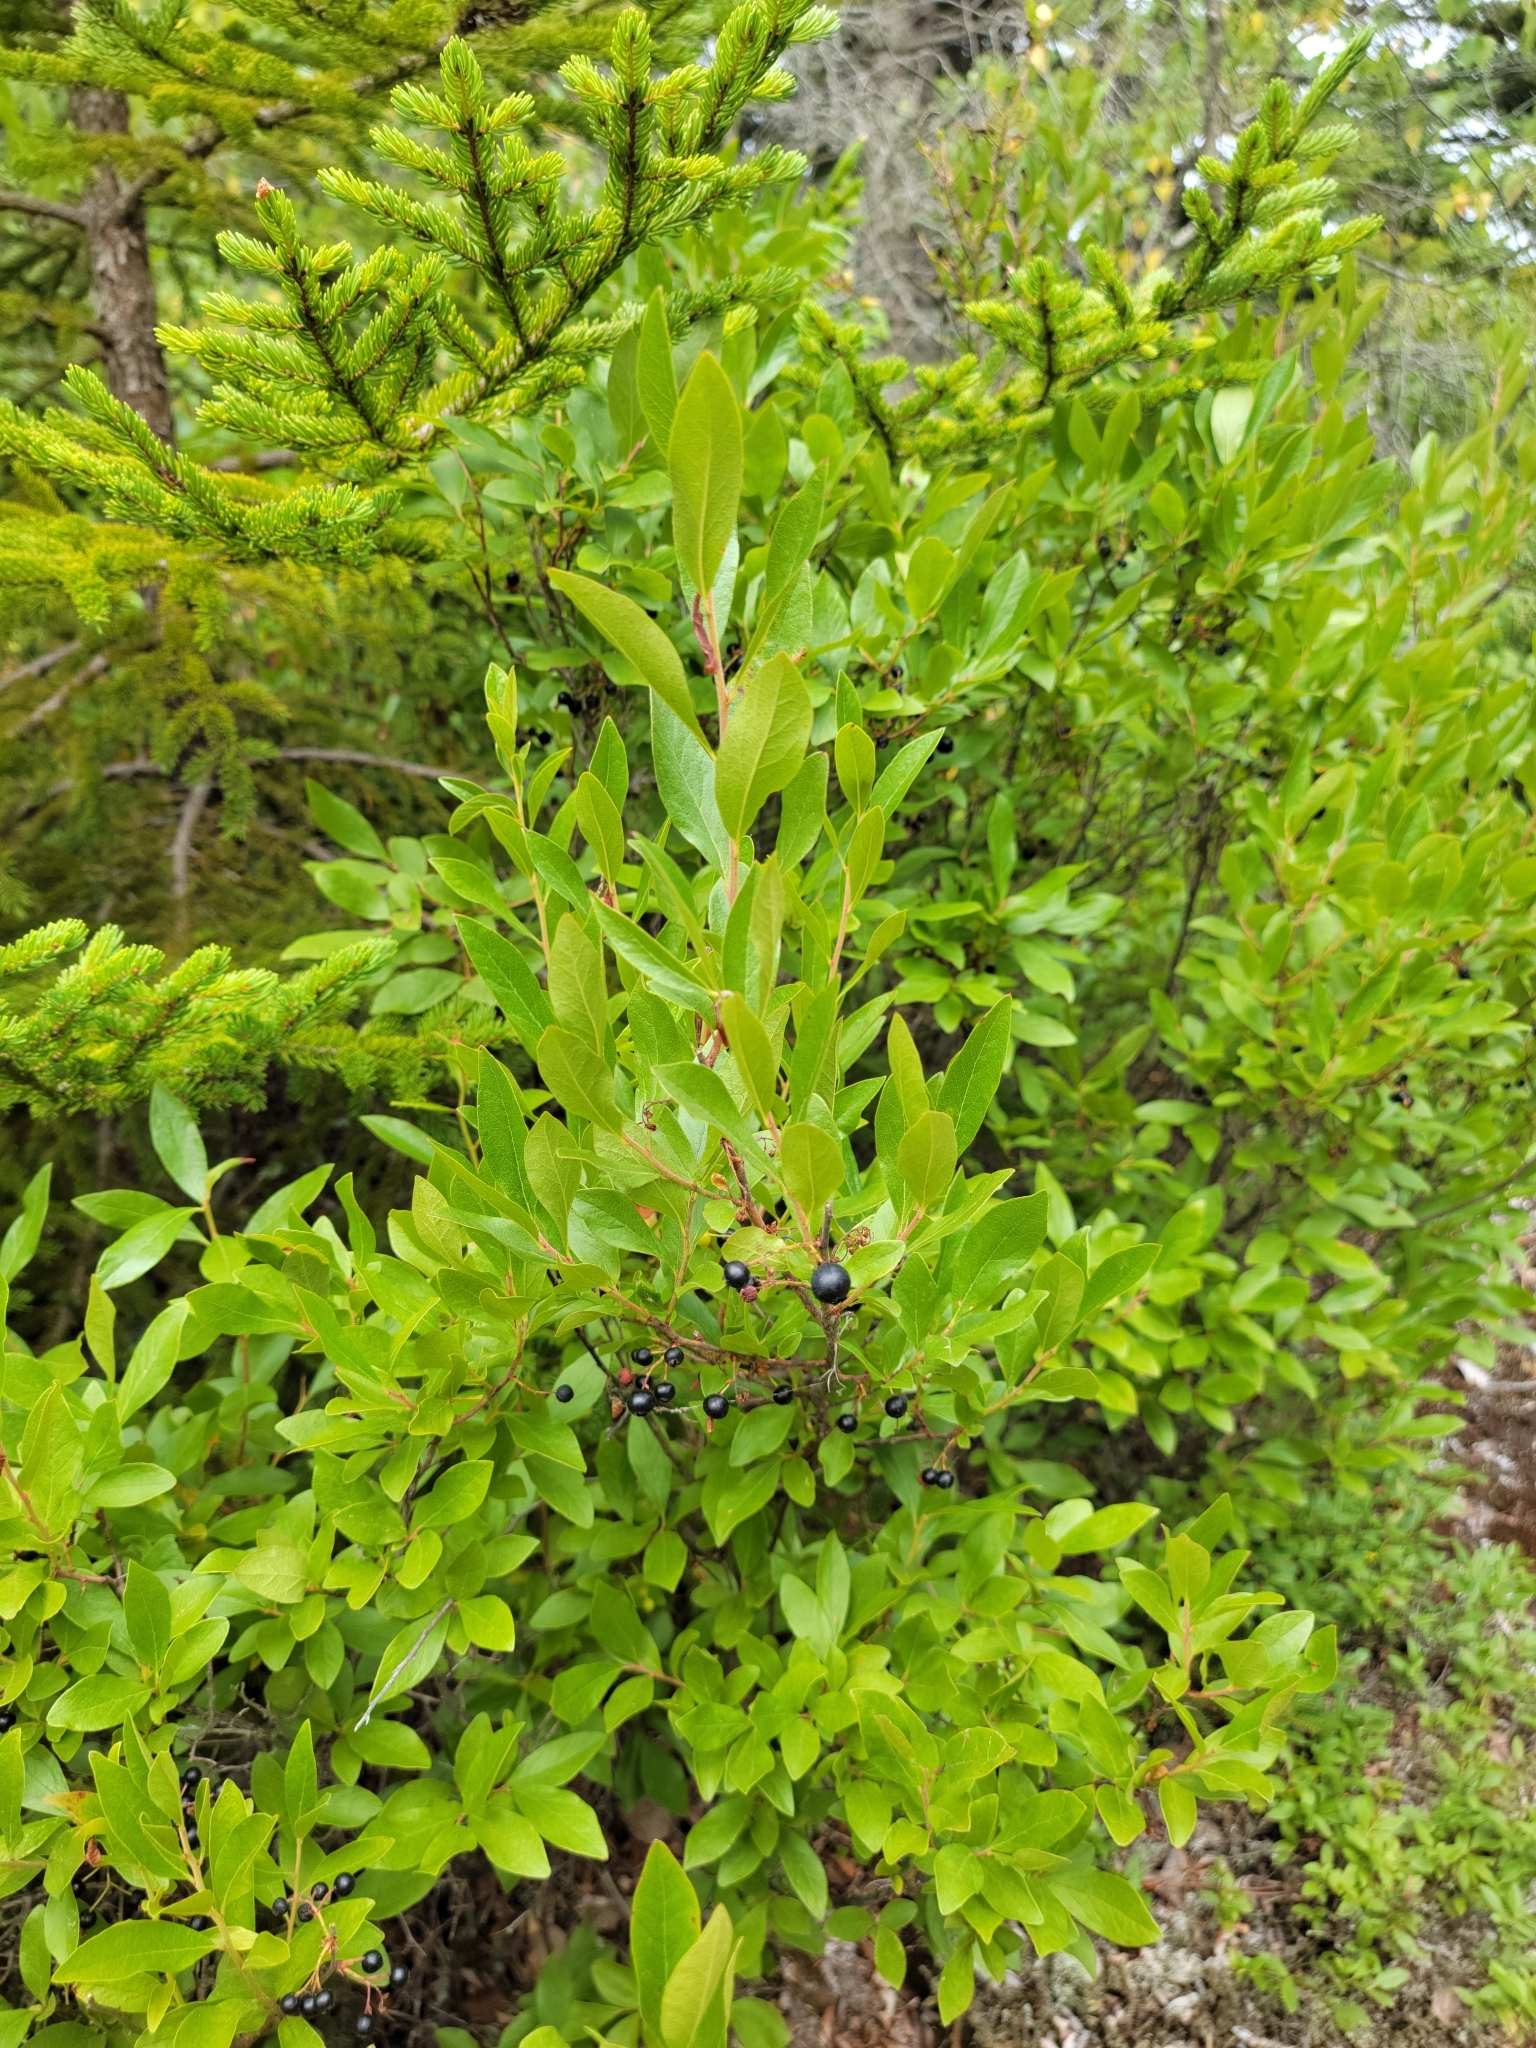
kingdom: Plantae
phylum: Tracheophyta
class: Magnoliopsida
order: Ericales
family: Ericaceae
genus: Gaylussacia
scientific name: Gaylussacia baccata
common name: Black huckleberry
